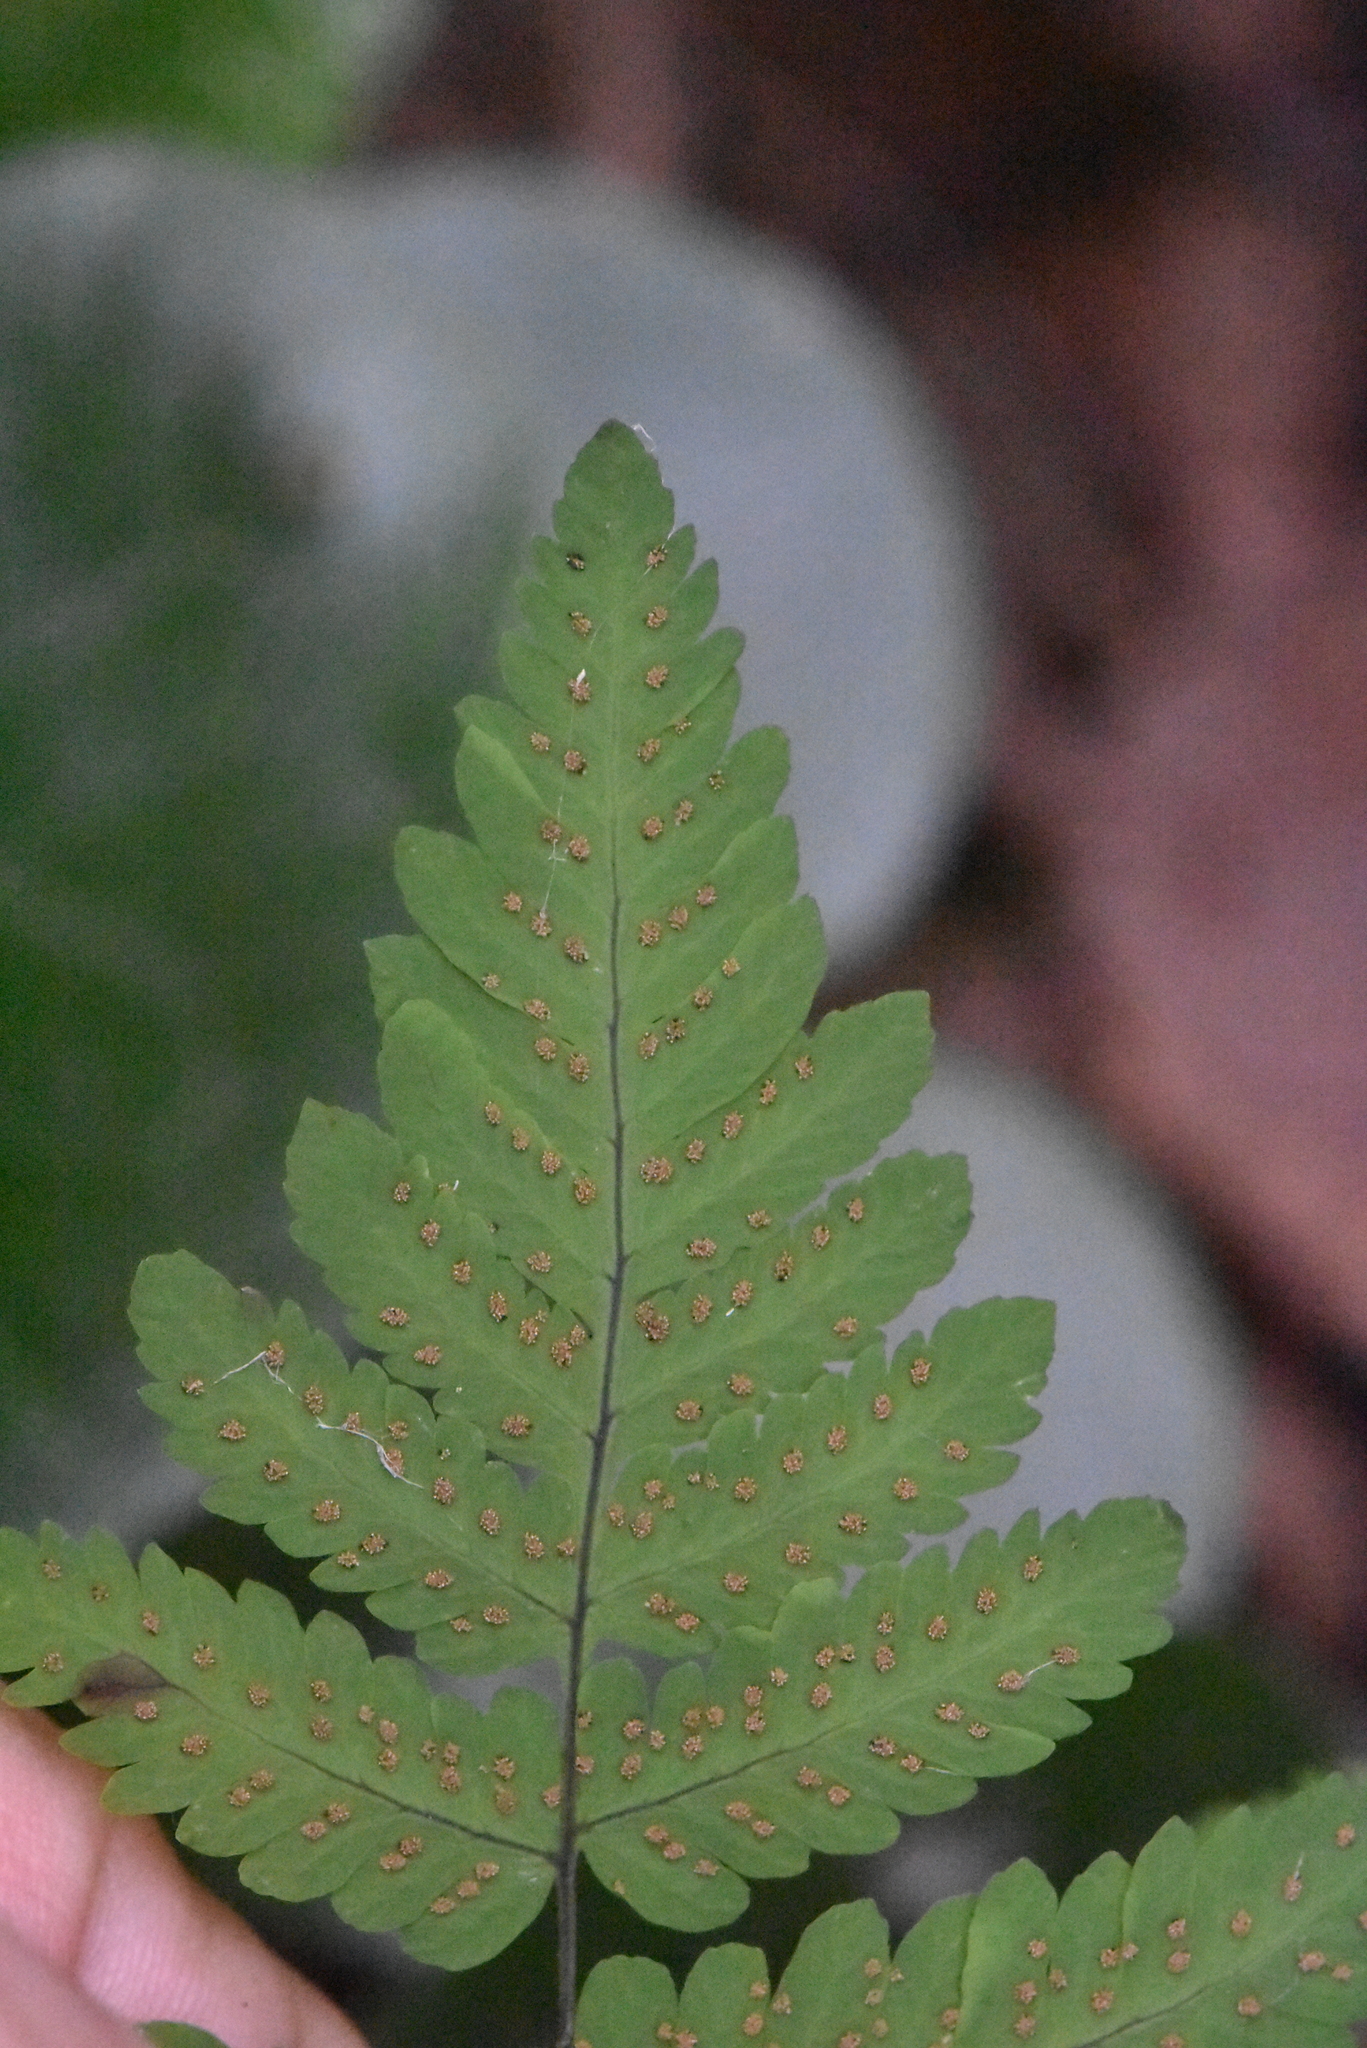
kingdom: Plantae
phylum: Tracheophyta
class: Polypodiopsida
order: Polypodiales
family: Cystopteridaceae
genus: Gymnocarpium
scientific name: Gymnocarpium dryopteris
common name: Oak fern
